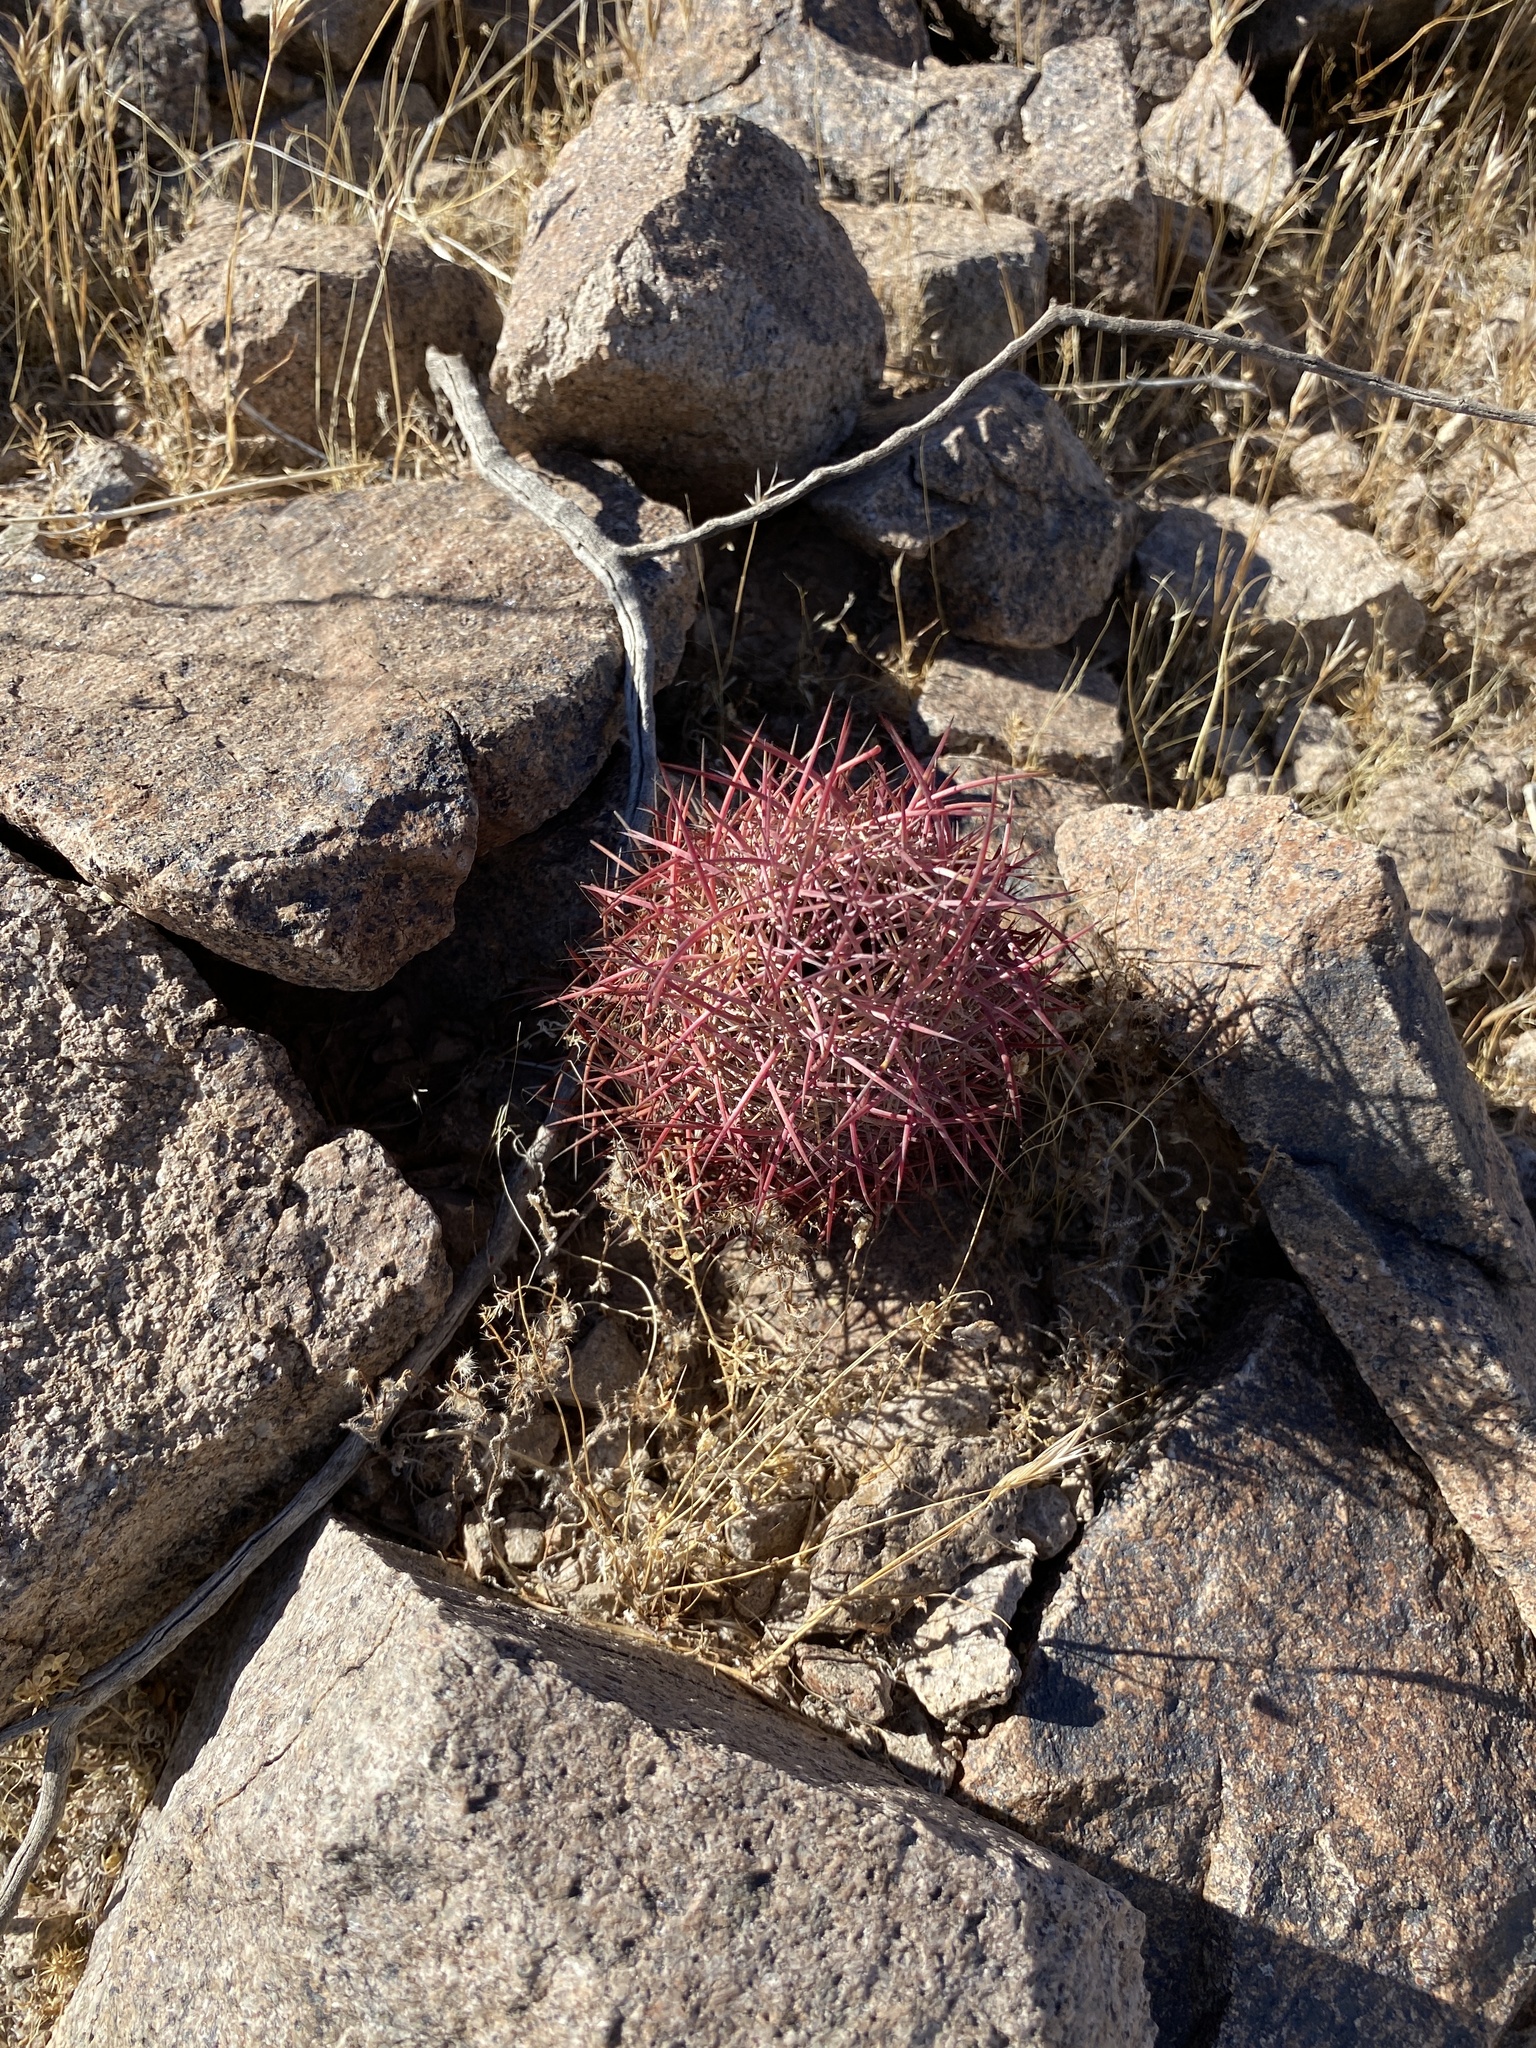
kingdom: Plantae
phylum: Tracheophyta
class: Magnoliopsida
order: Caryophyllales
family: Cactaceae
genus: Sclerocactus
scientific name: Sclerocactus johnsonii
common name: Eight-spine fishhook cactus
